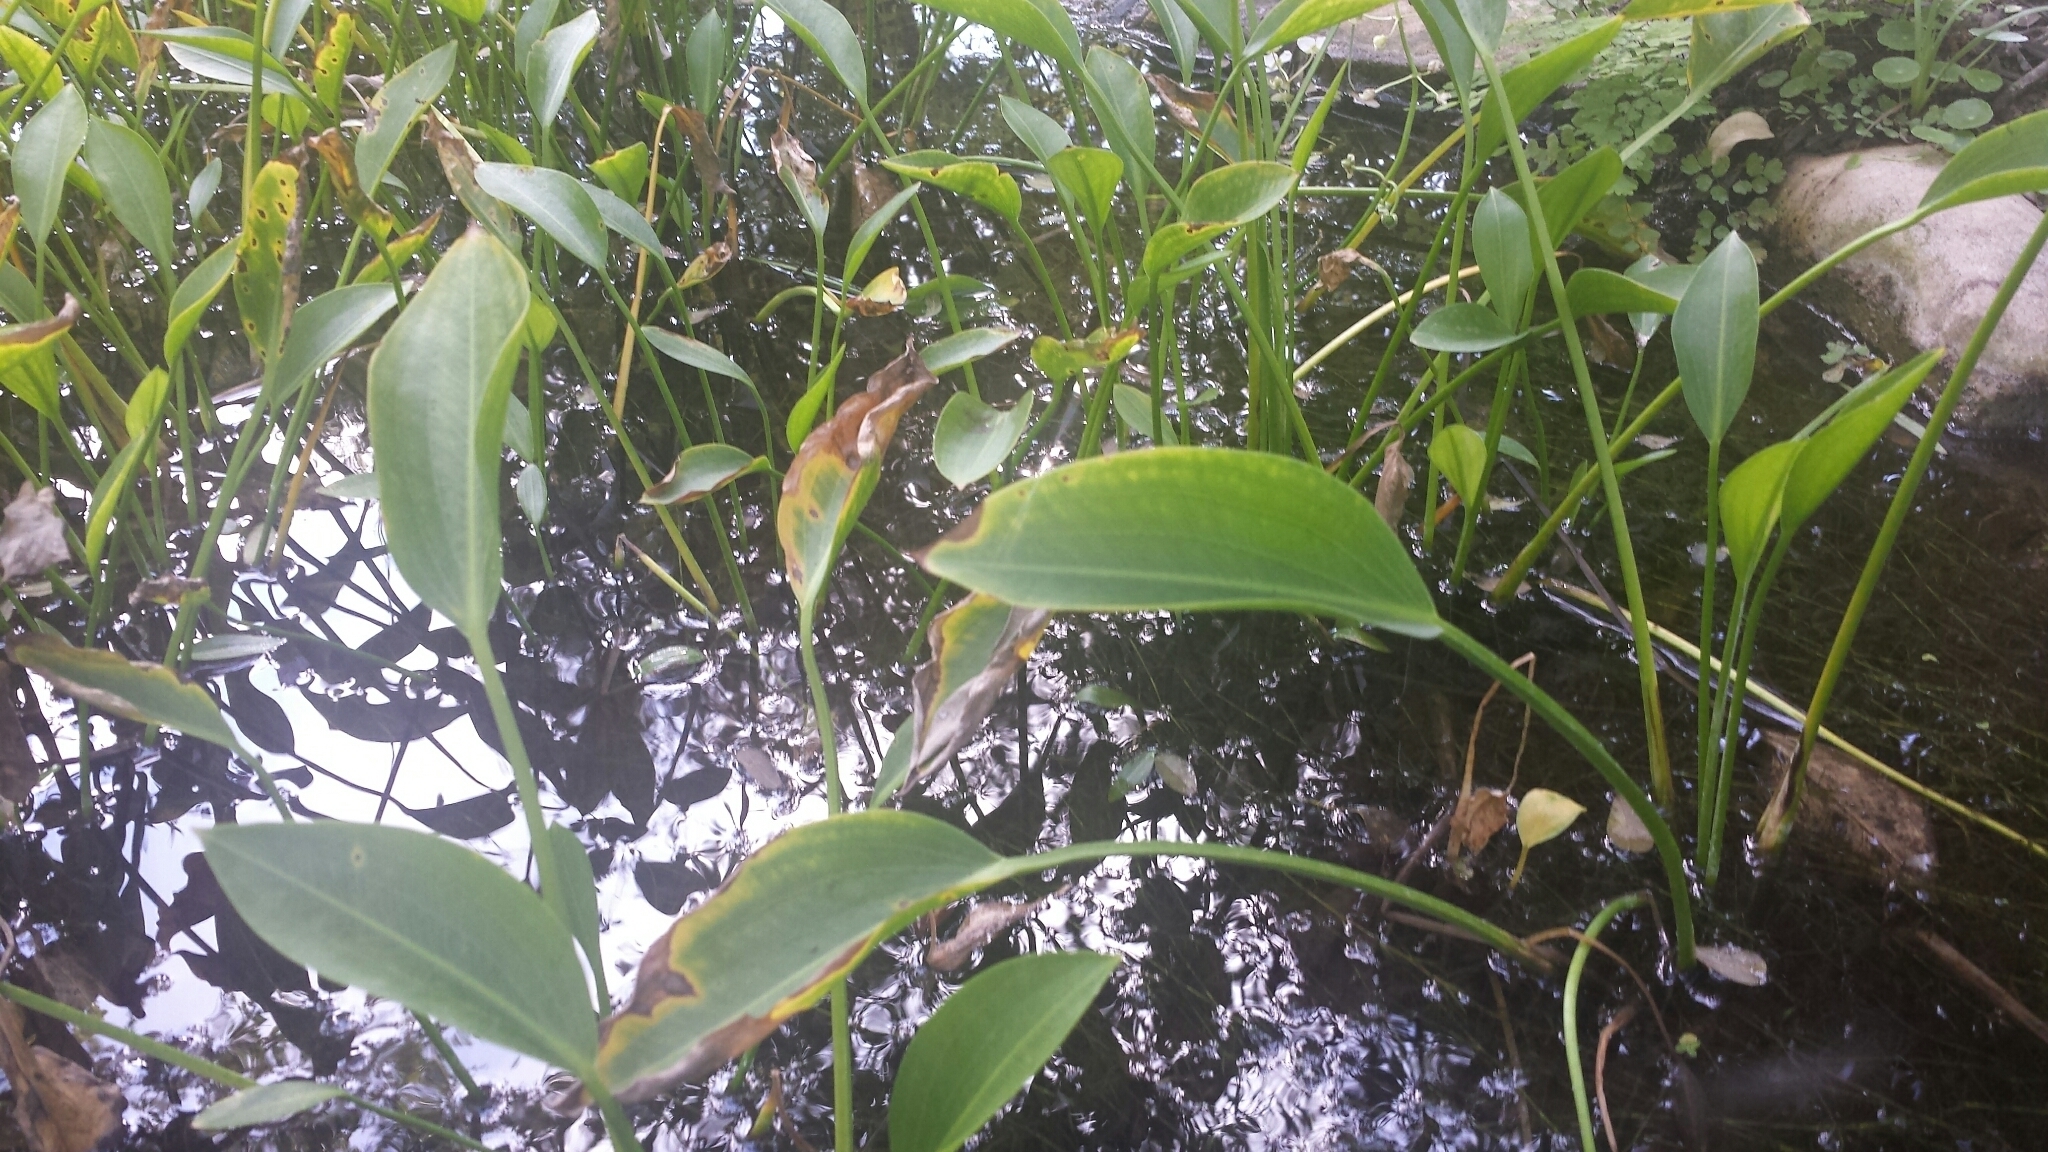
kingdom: Plantae
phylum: Tracheophyta
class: Liliopsida
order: Commelinales
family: Pontederiaceae
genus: Pontederia
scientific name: Pontederia cordata
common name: Pickerelweed
